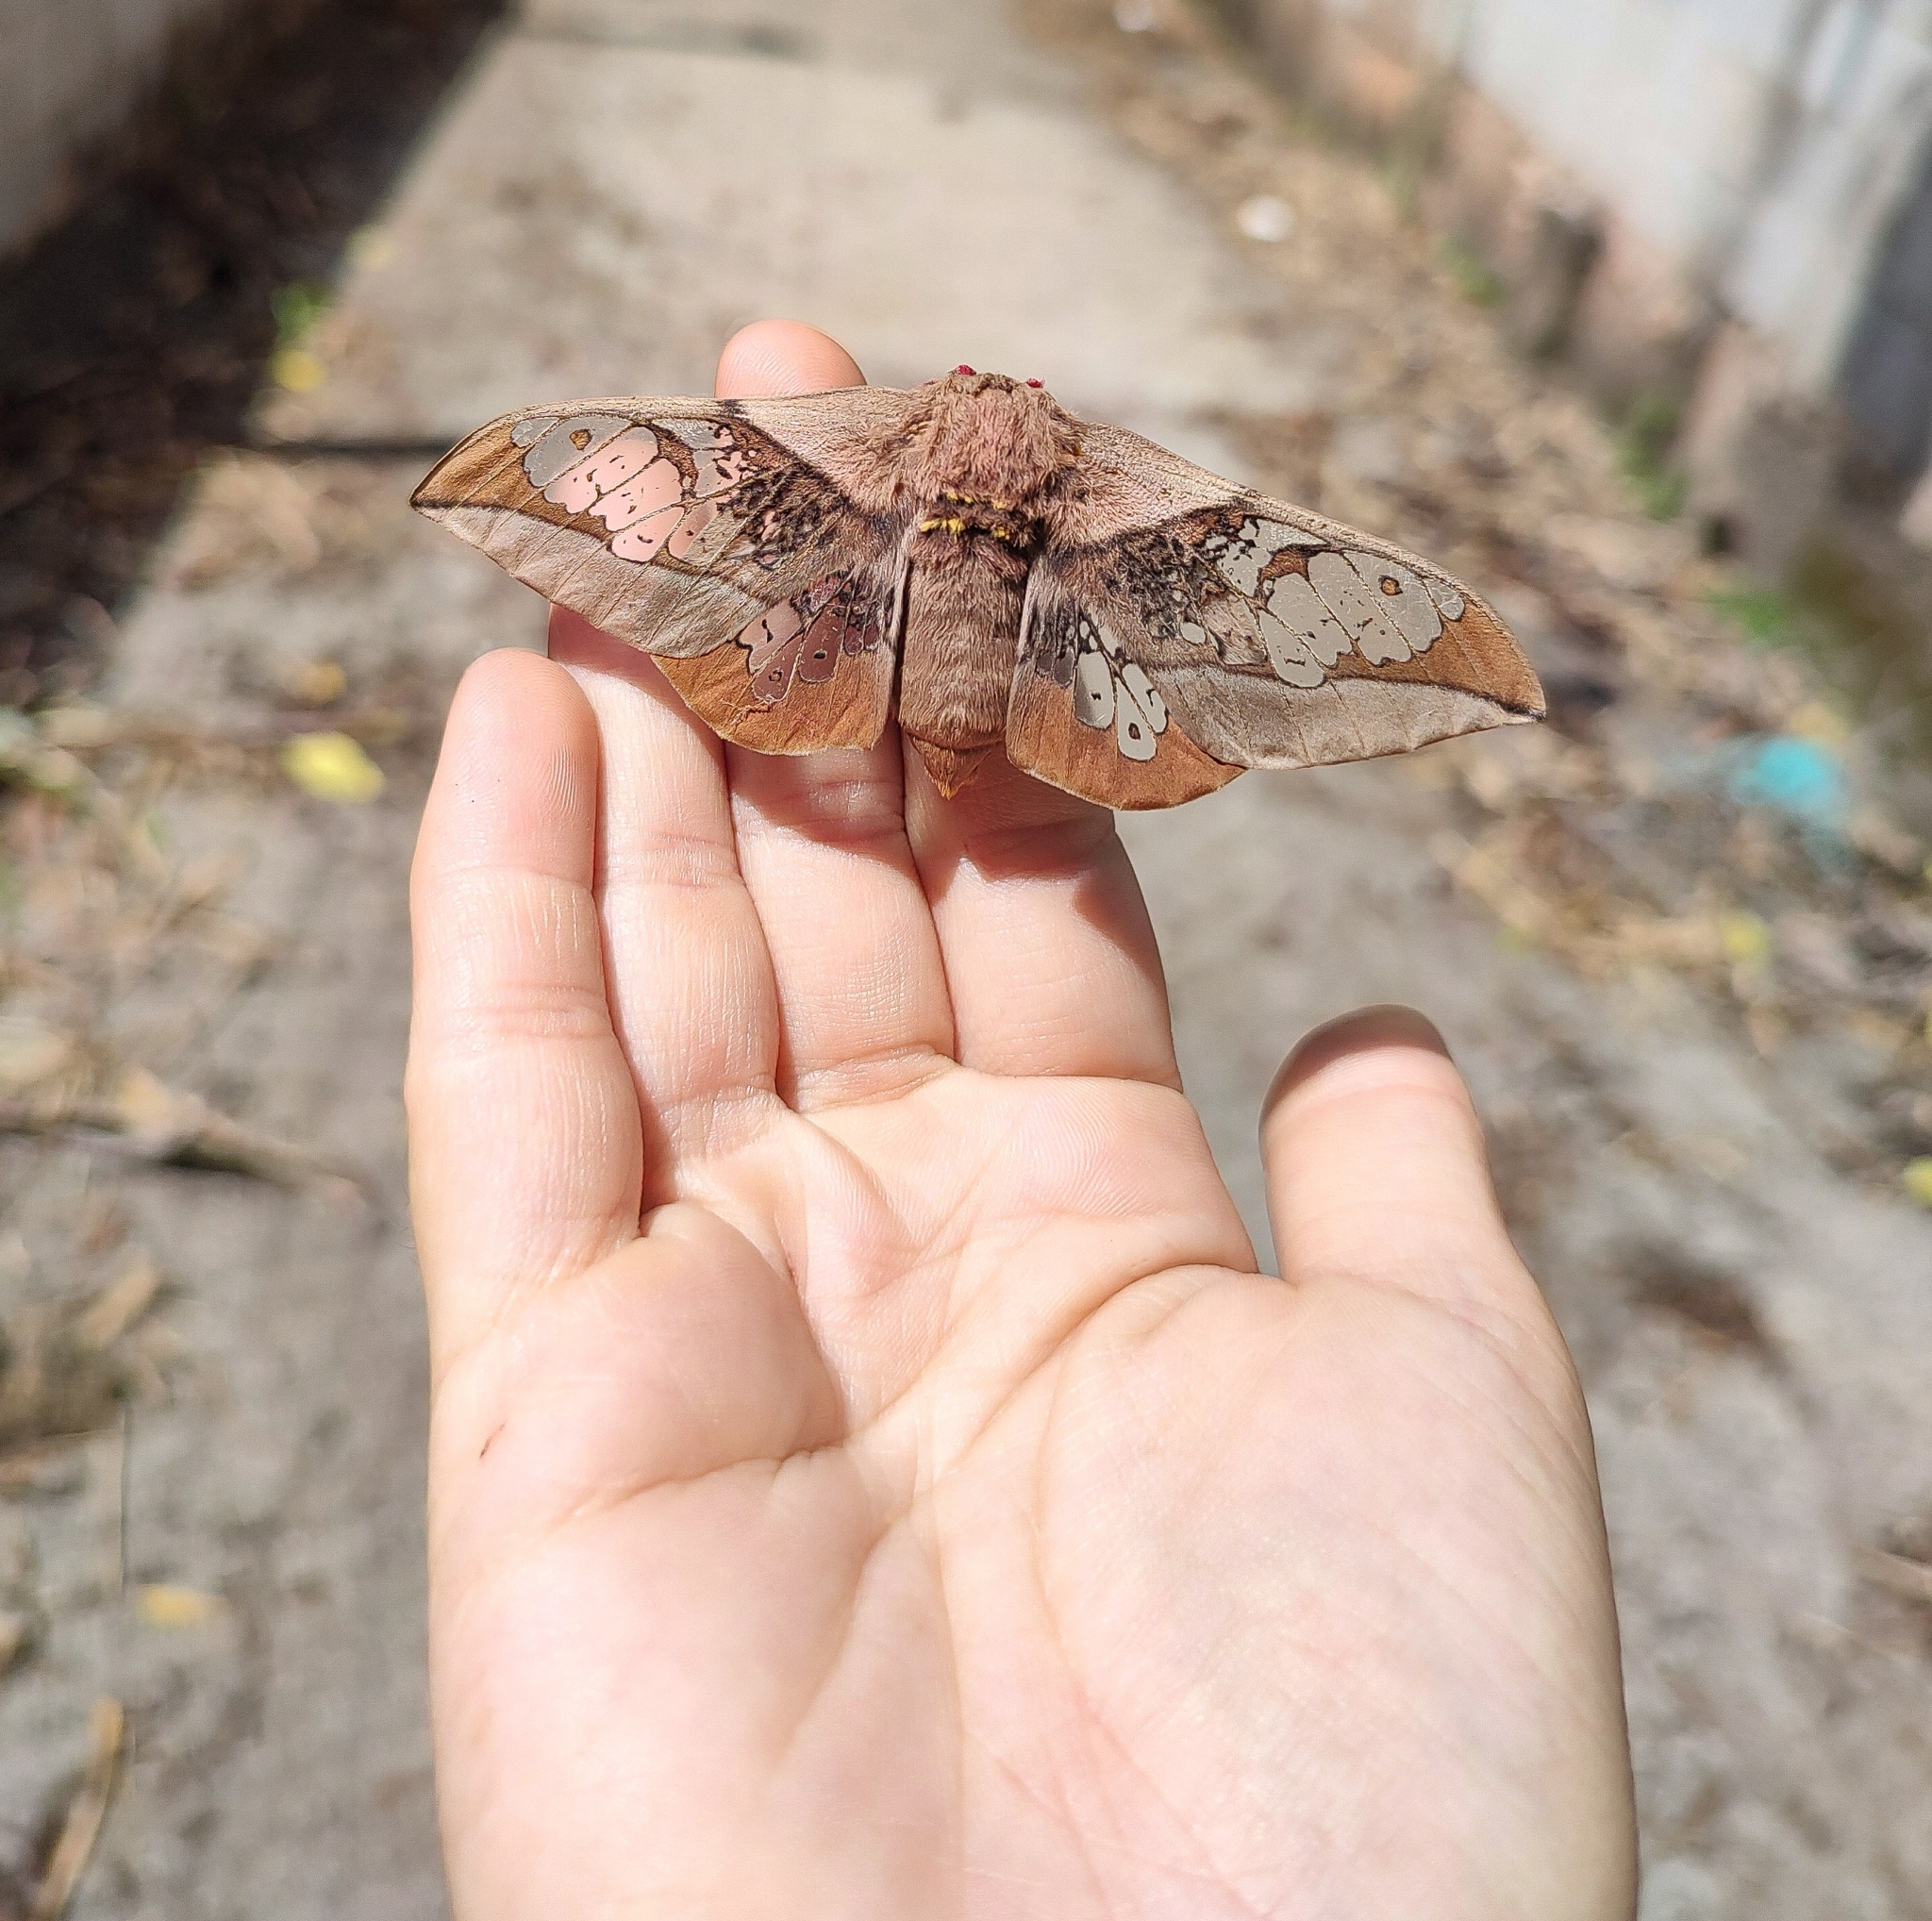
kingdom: Animalia
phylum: Arthropoda
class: Insecta
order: Lepidoptera
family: Saturniidae
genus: Neorcarnegia
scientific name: Neorcarnegia basirei
